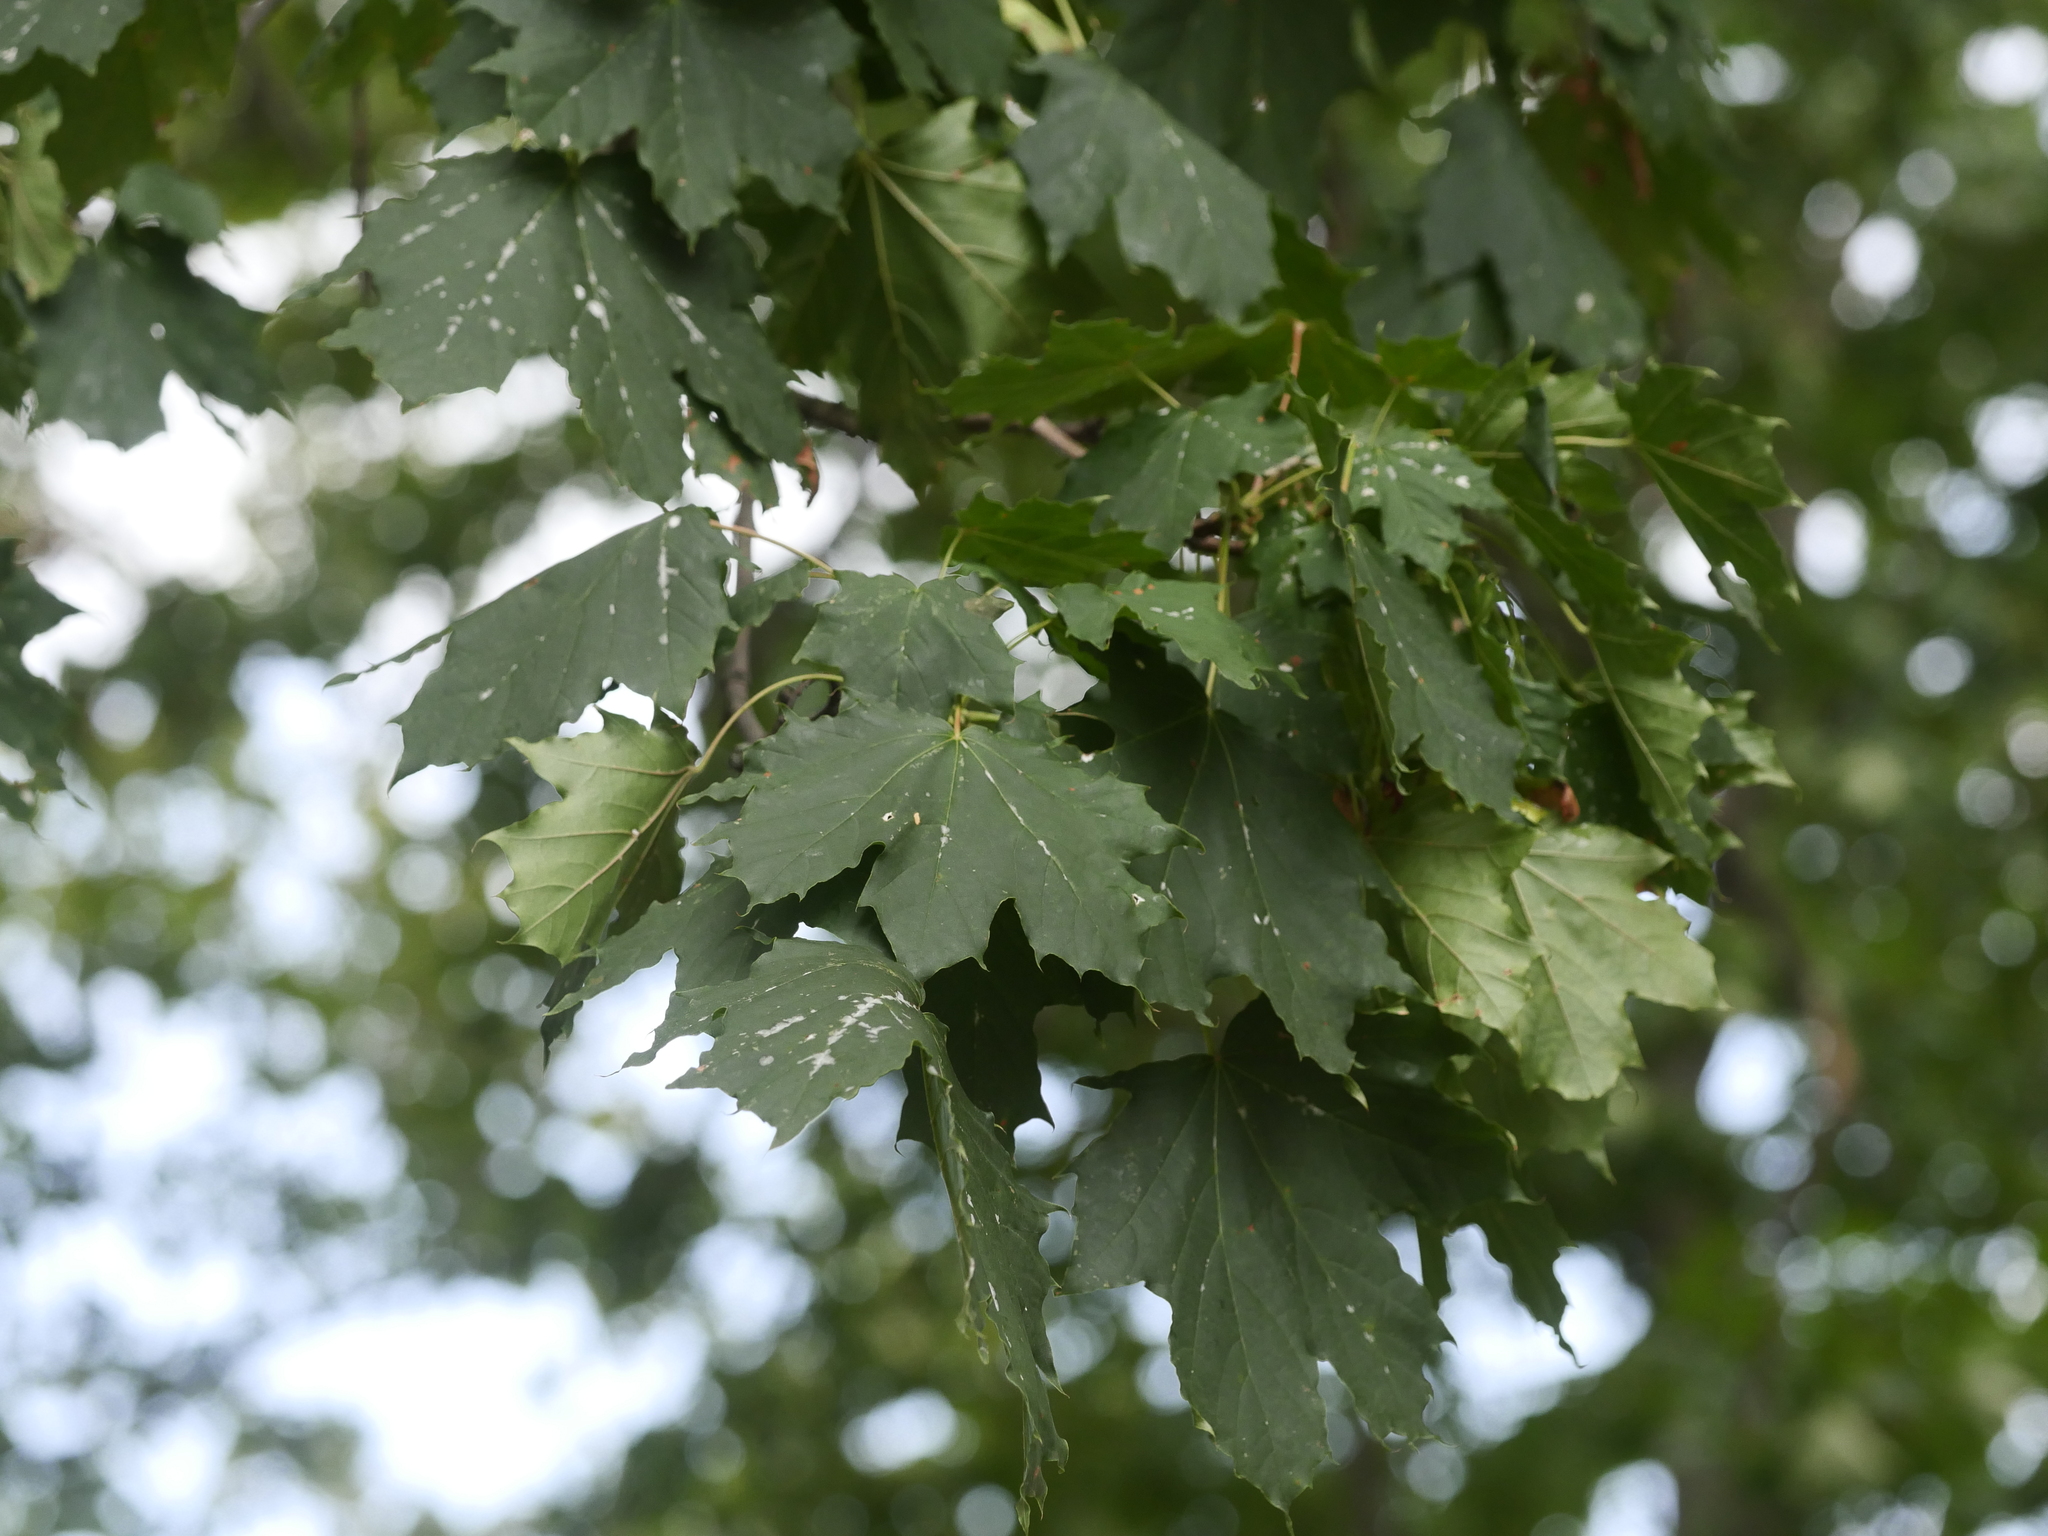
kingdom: Plantae
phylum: Tracheophyta
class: Magnoliopsida
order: Sapindales
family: Sapindaceae
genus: Acer
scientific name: Acer platanoides
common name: Norway maple
